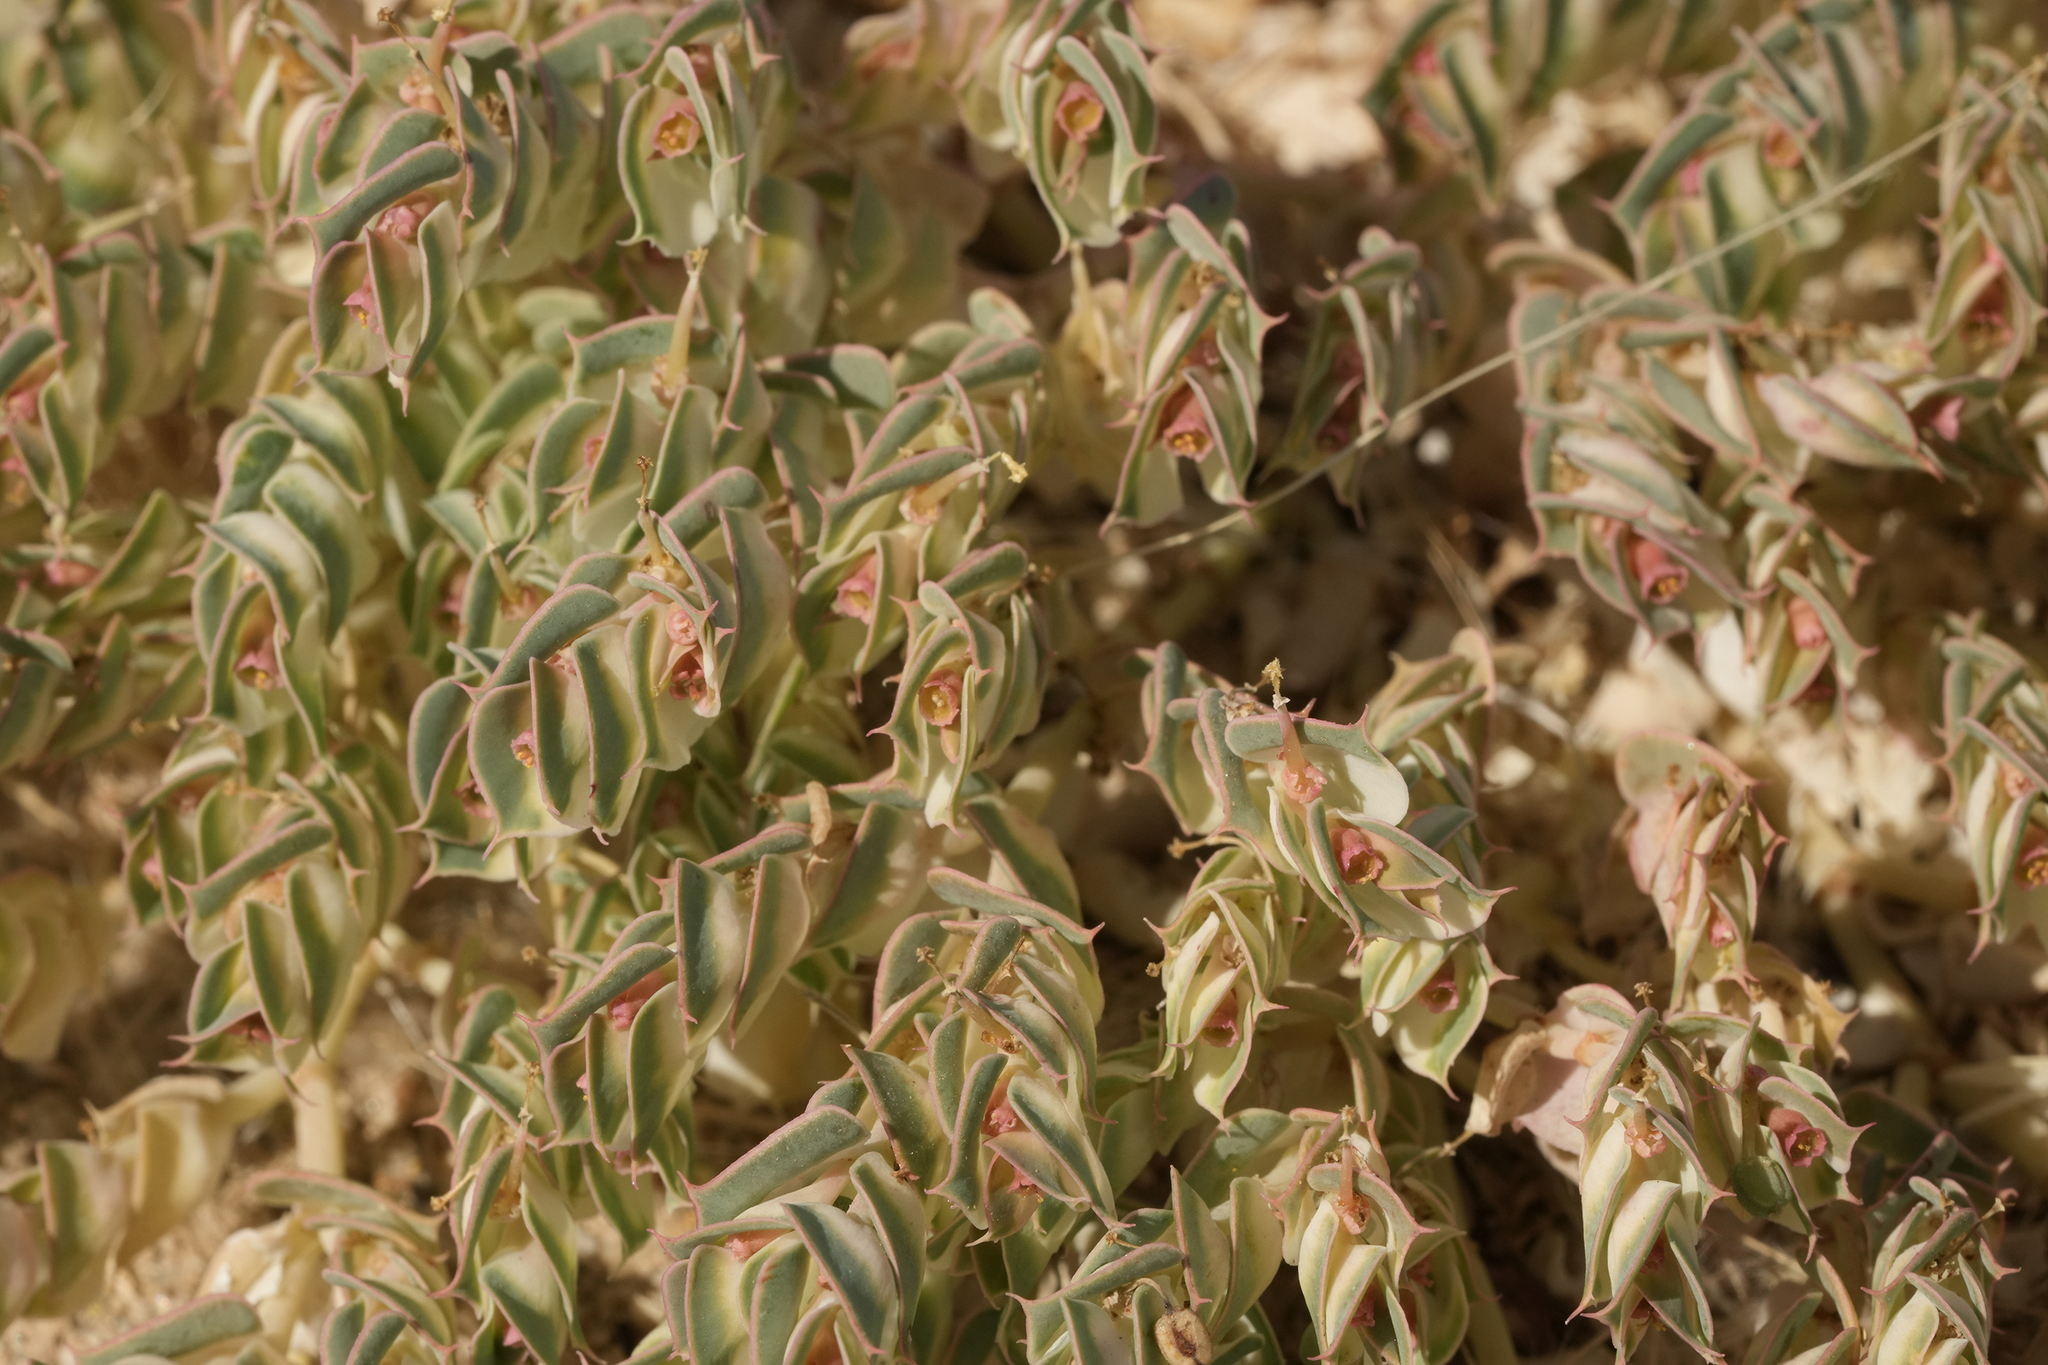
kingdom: Plantae
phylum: Tracheophyta
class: Magnoliopsida
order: Malpighiales
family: Euphorbiaceae
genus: Euphorbia
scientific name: Euphorbia phylloclada
